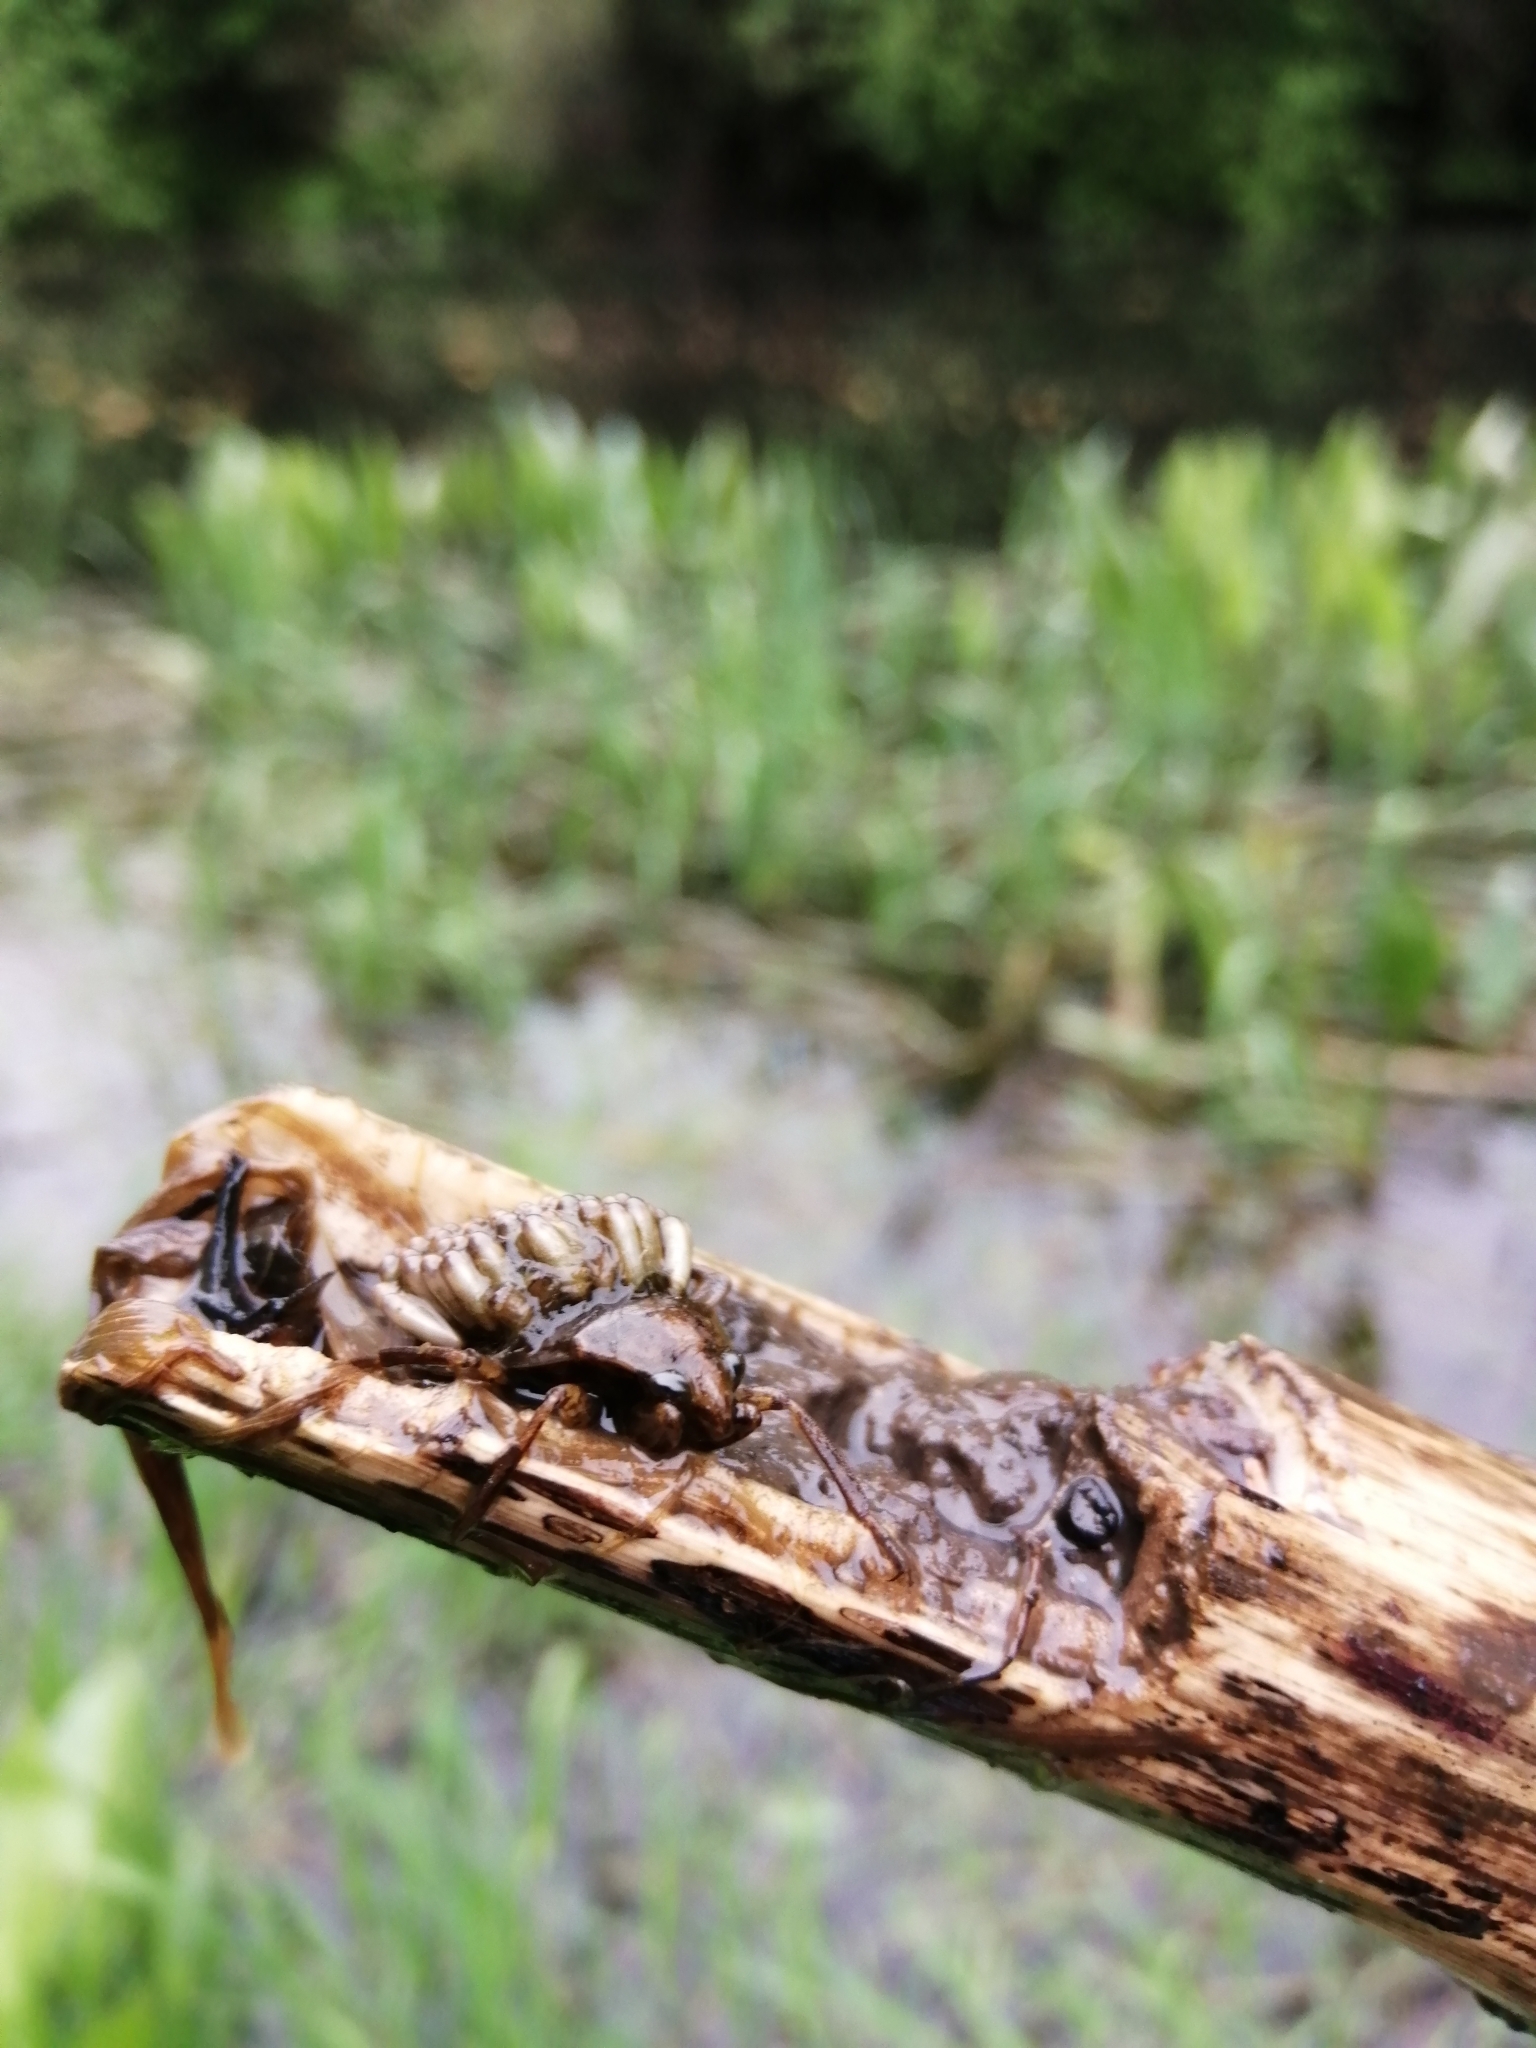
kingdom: Animalia
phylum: Arthropoda
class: Insecta
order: Hemiptera
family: Belostomatidae
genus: Belostoma
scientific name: Belostoma bifoveolatum
